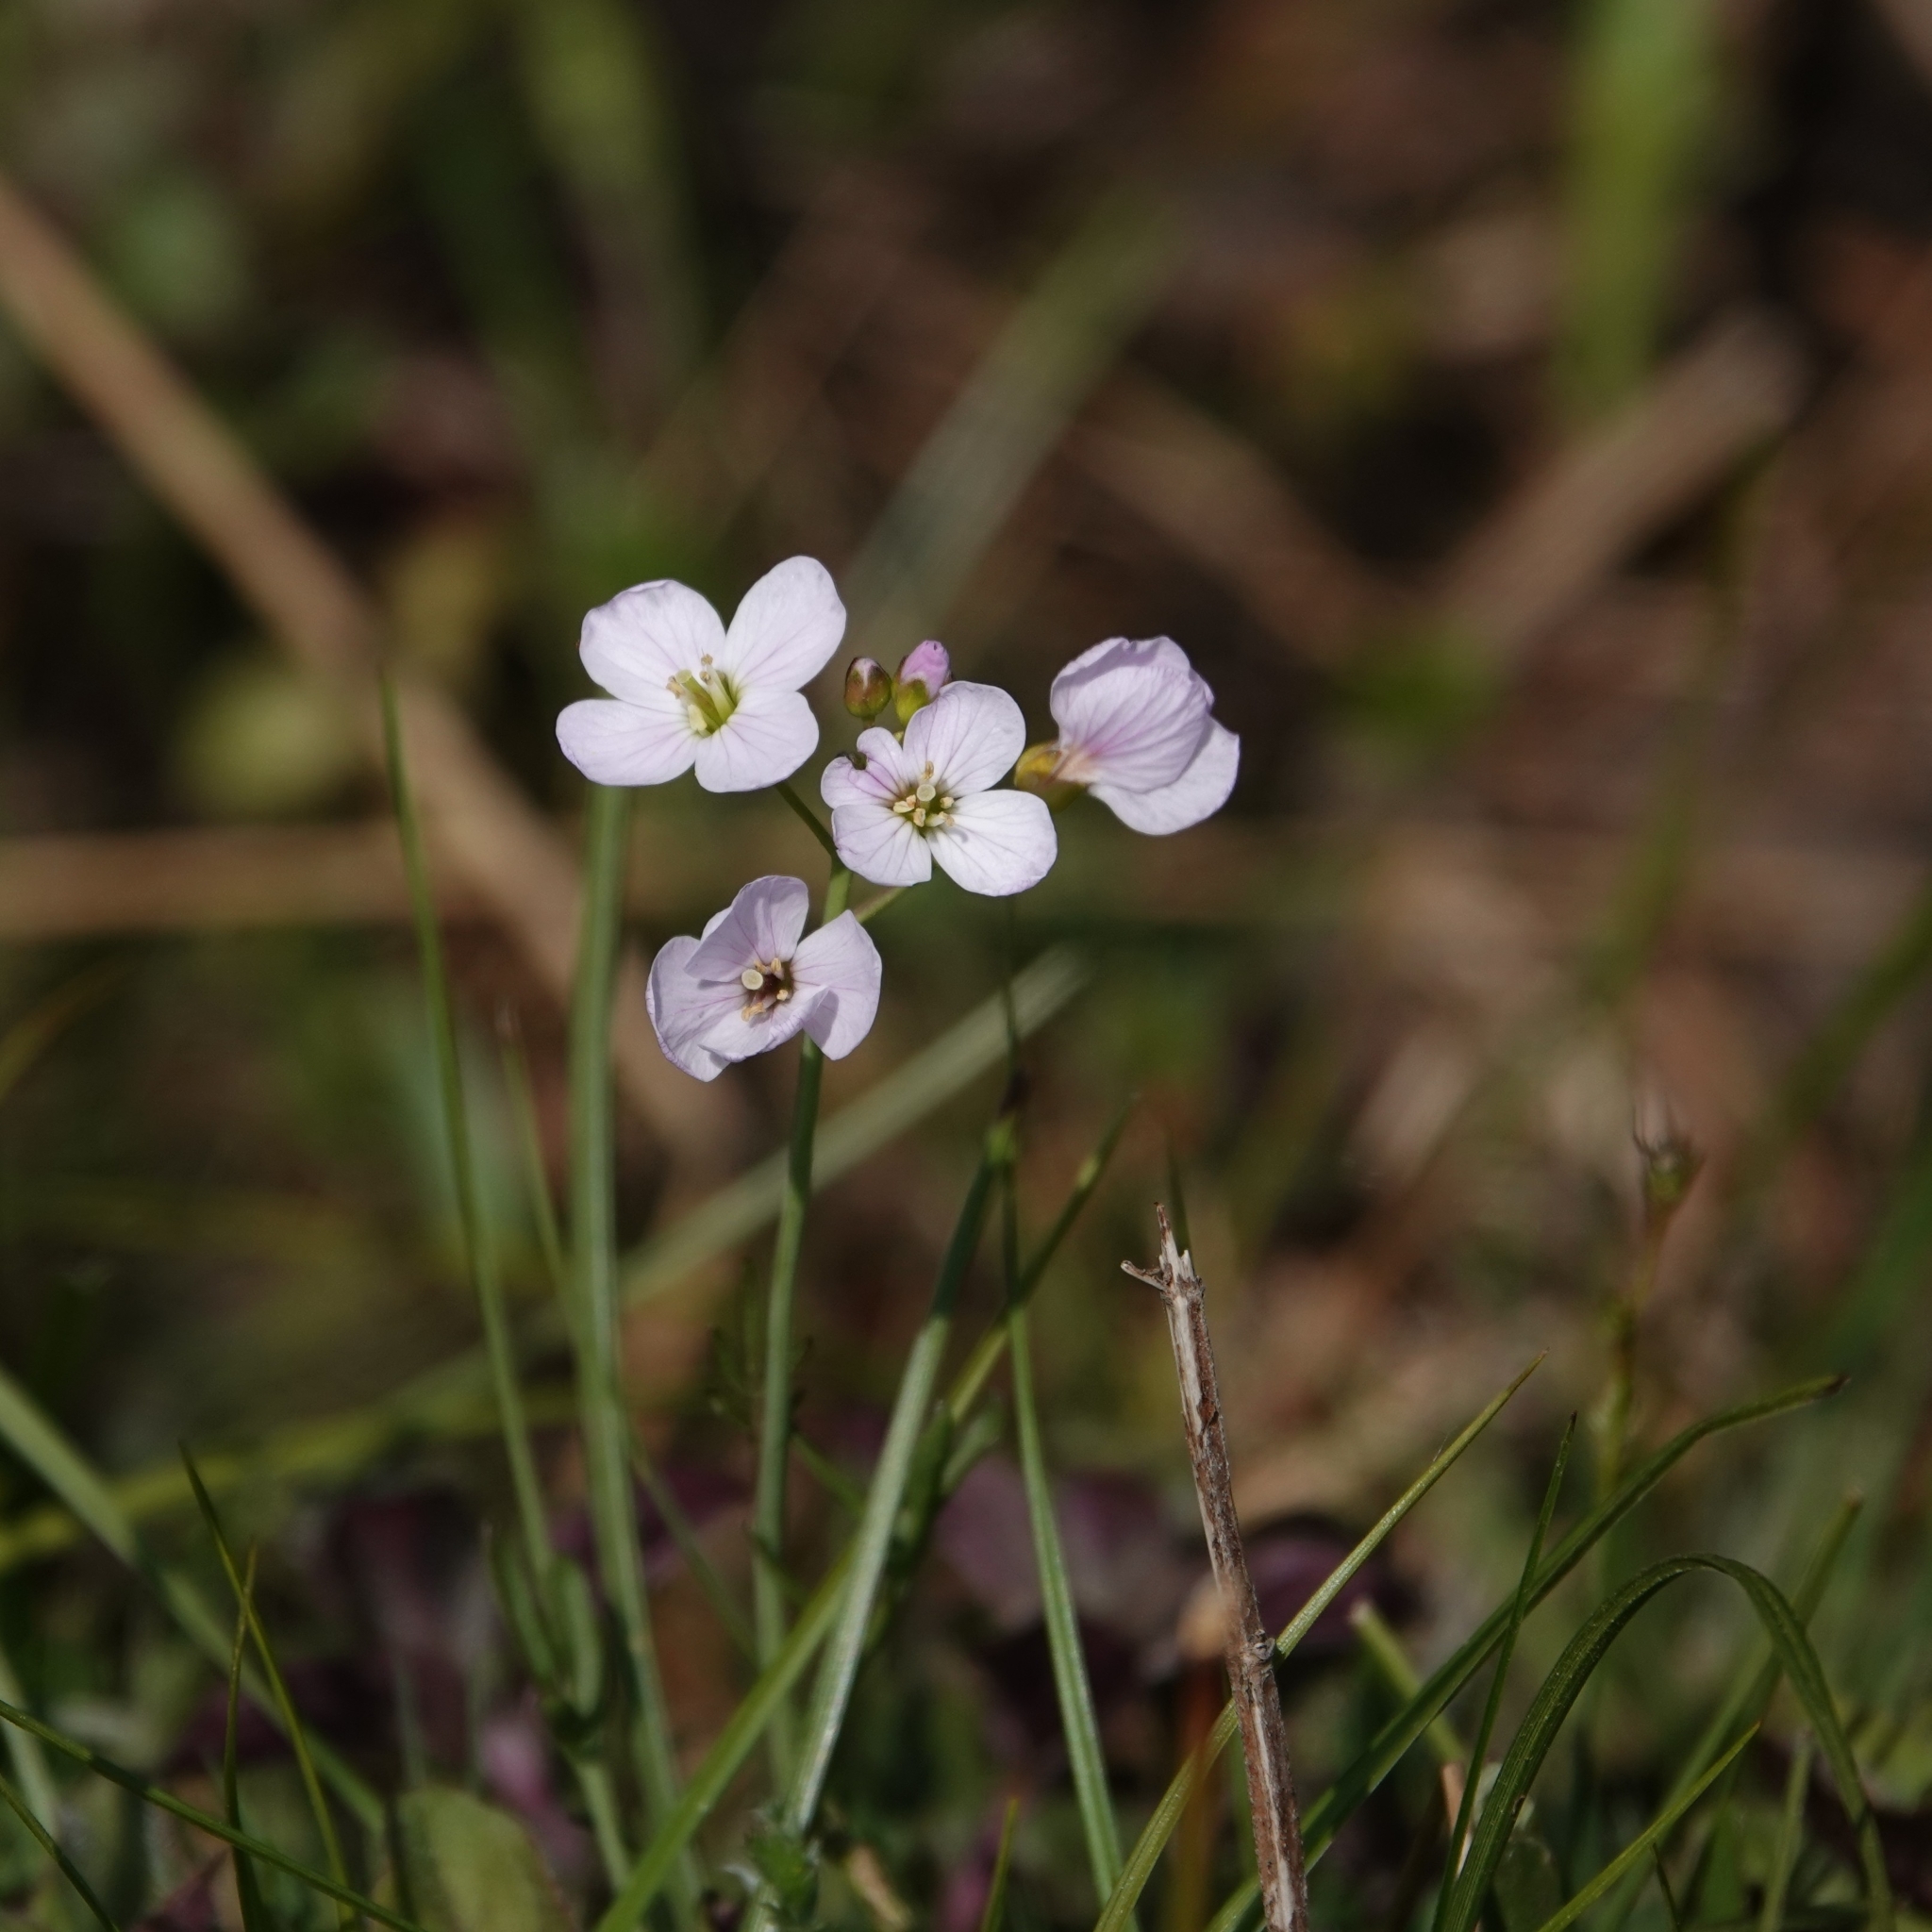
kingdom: Plantae
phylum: Tracheophyta
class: Magnoliopsida
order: Brassicales
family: Brassicaceae
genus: Cardamine
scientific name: Cardamine pratensis
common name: Cuckoo flower
